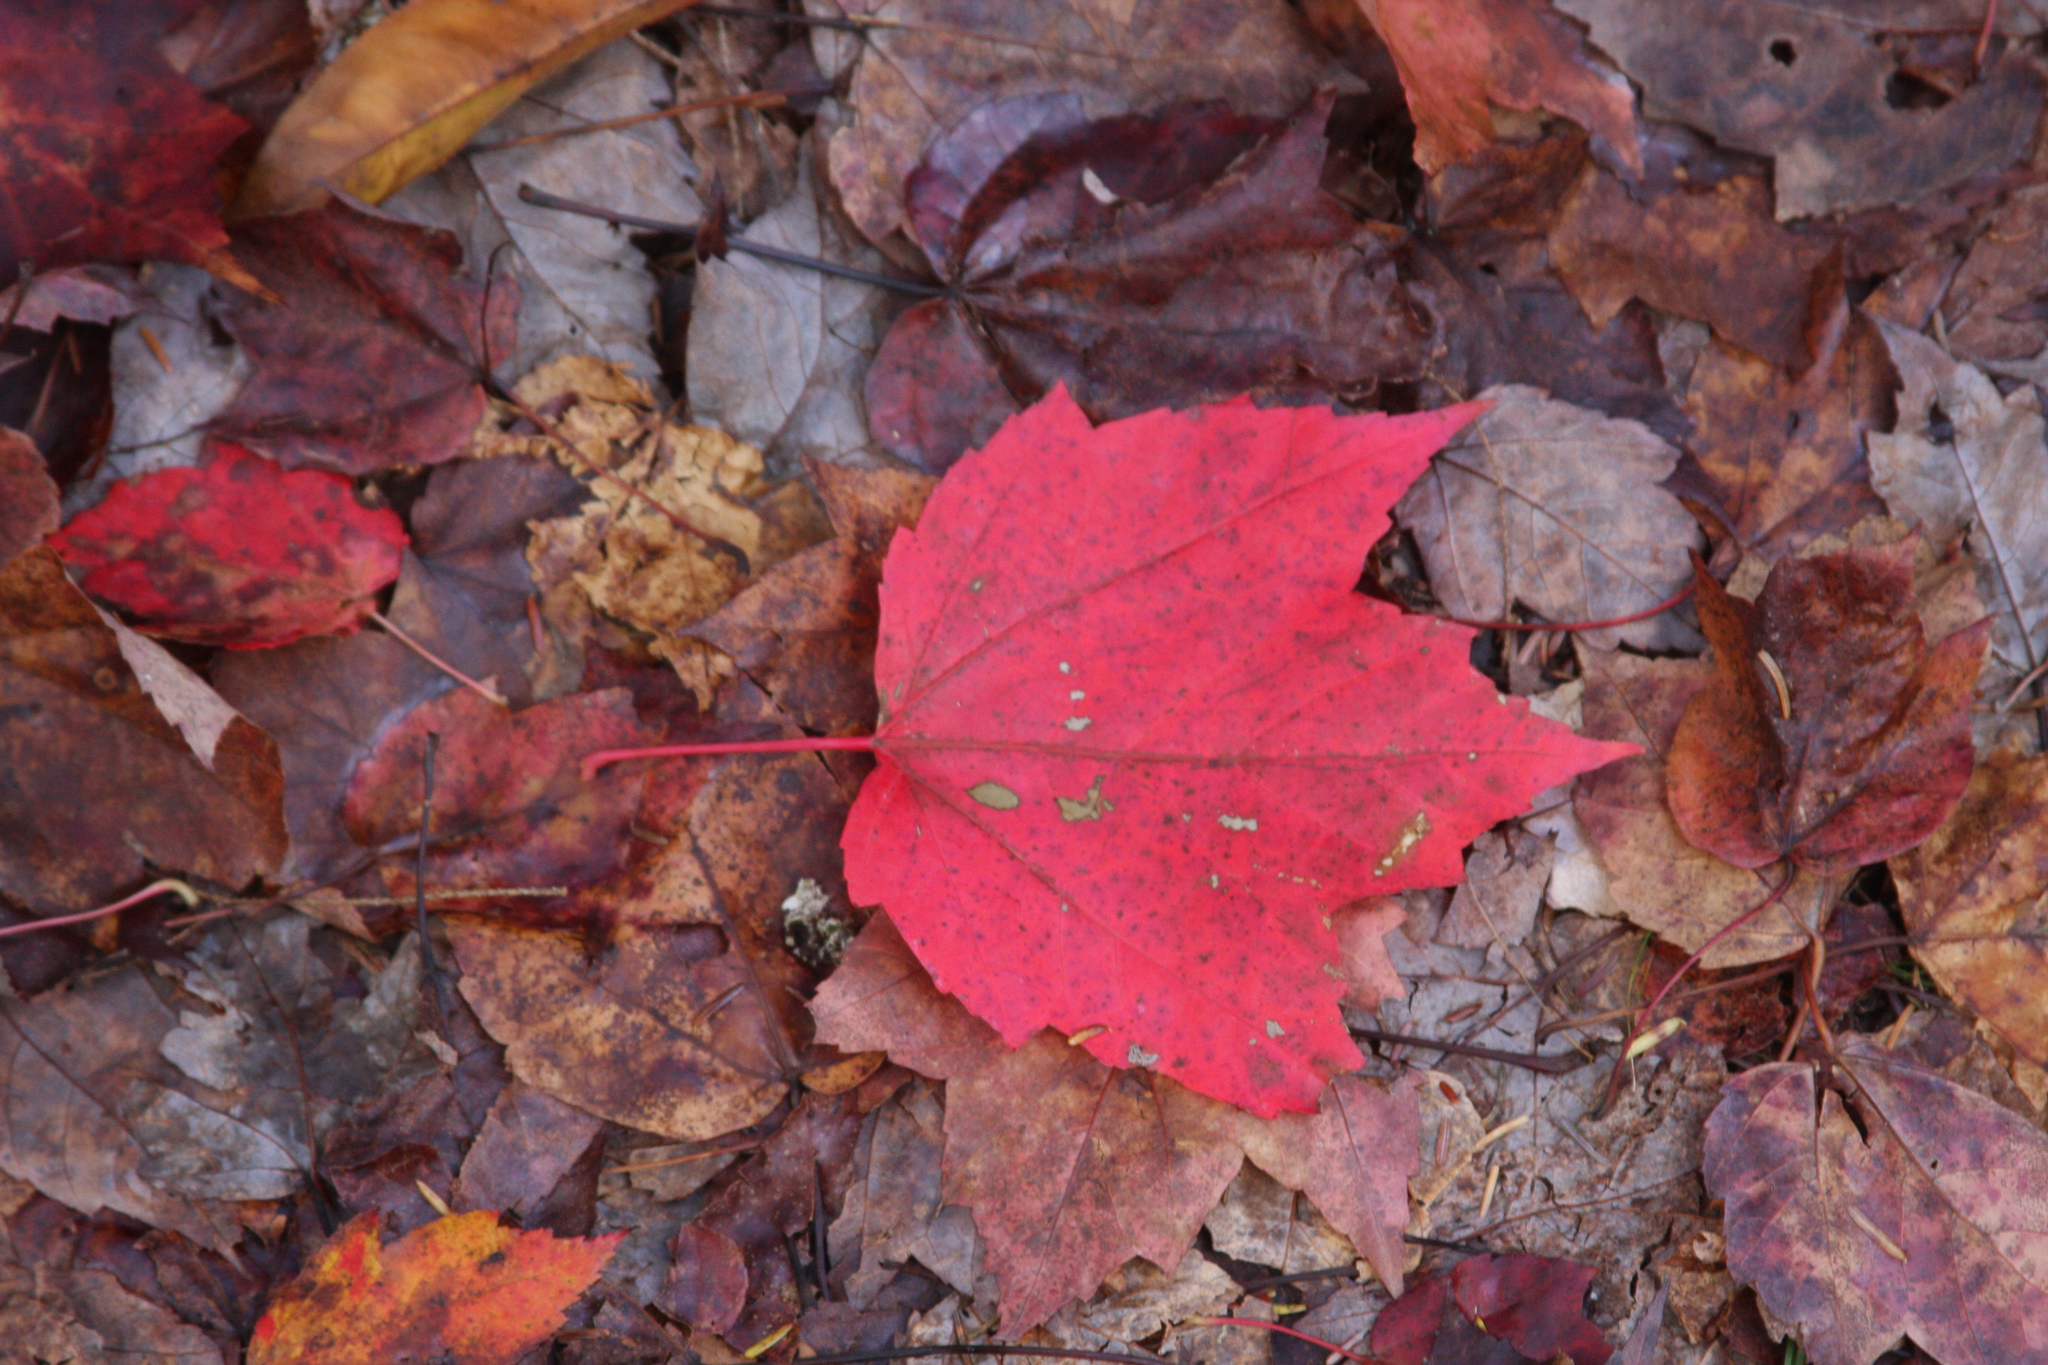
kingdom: Plantae
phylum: Tracheophyta
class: Magnoliopsida
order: Sapindales
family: Sapindaceae
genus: Acer
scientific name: Acer rubrum
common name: Red maple
